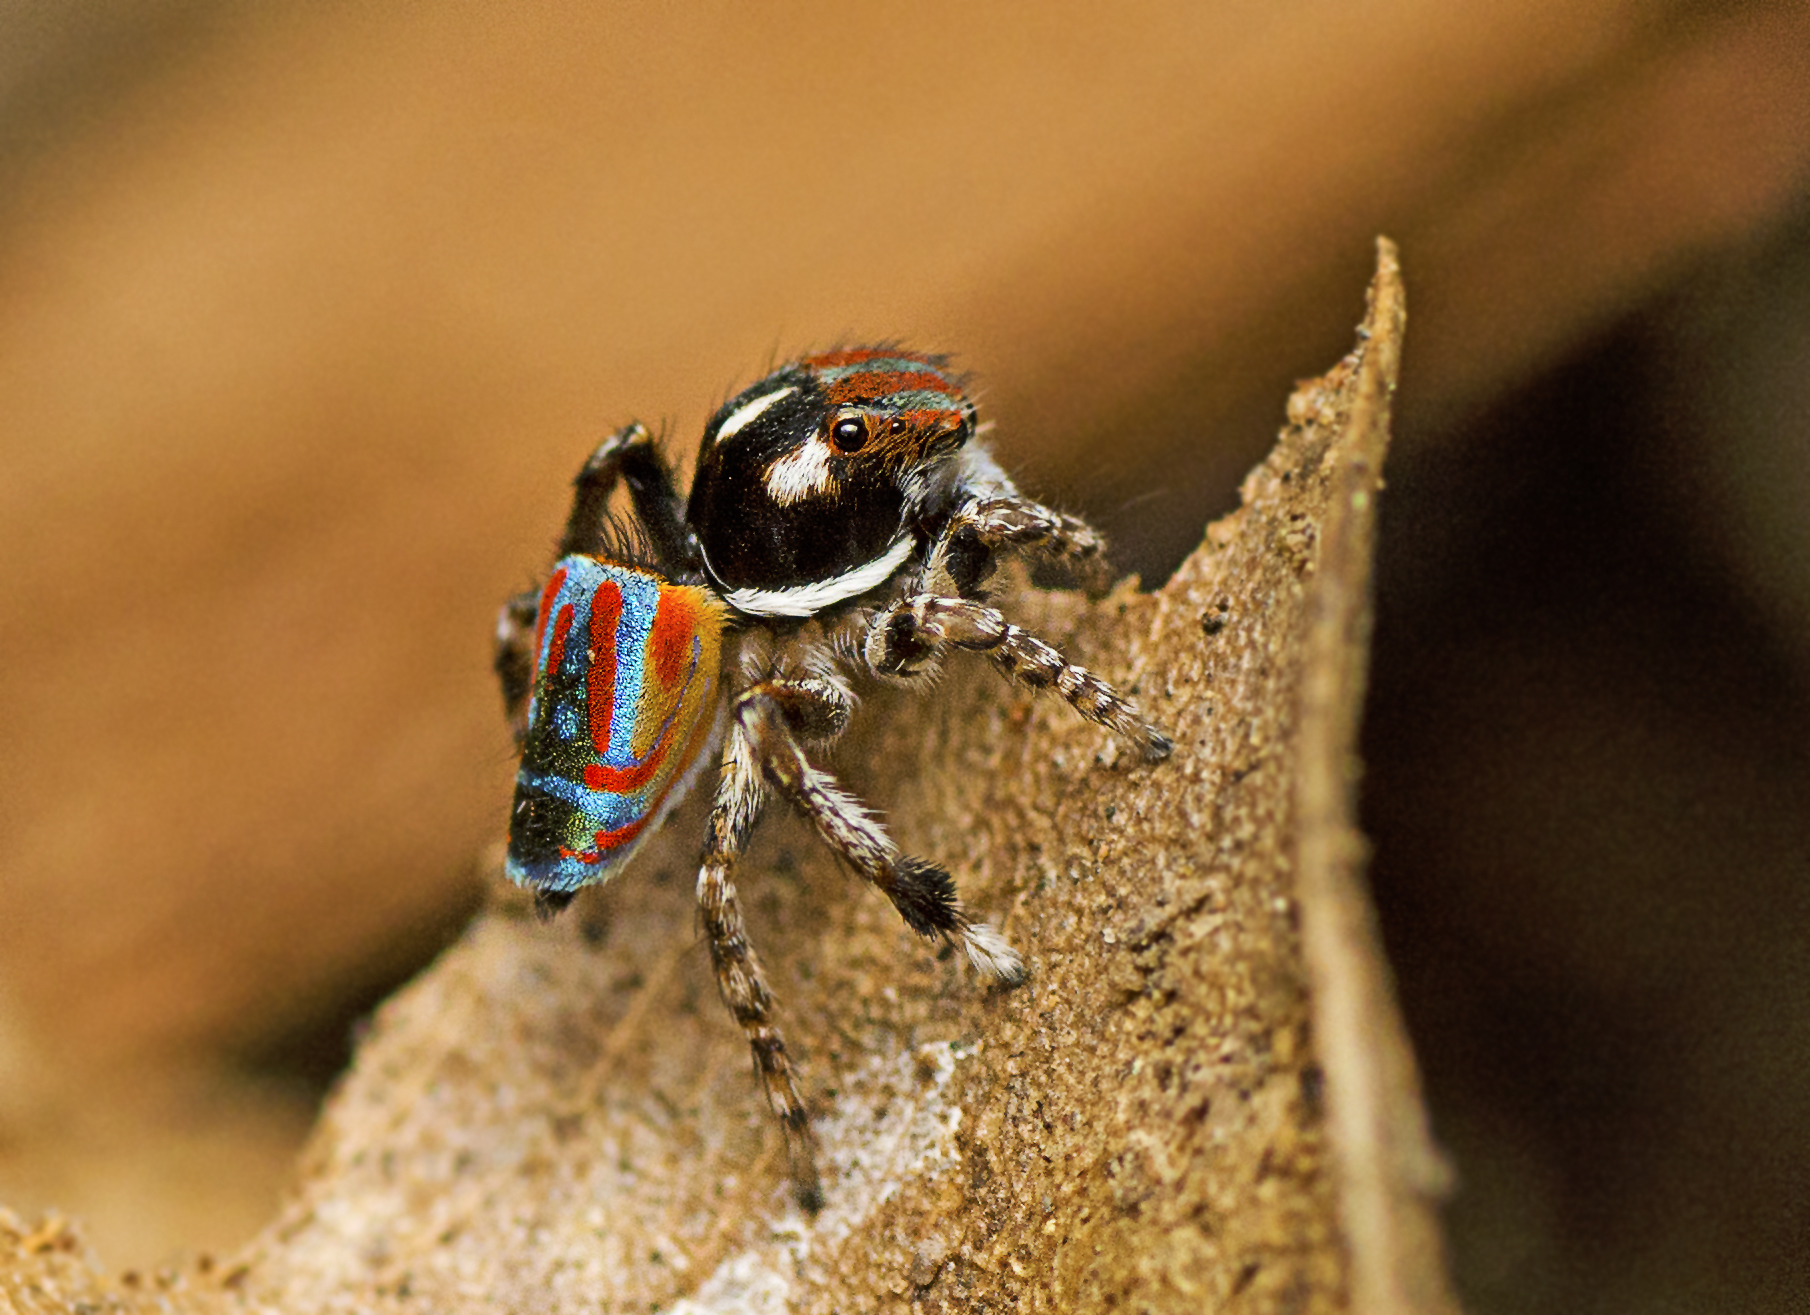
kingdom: Animalia
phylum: Arthropoda
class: Arachnida
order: Araneae
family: Salticidae
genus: Maratus
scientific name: Maratus volans
